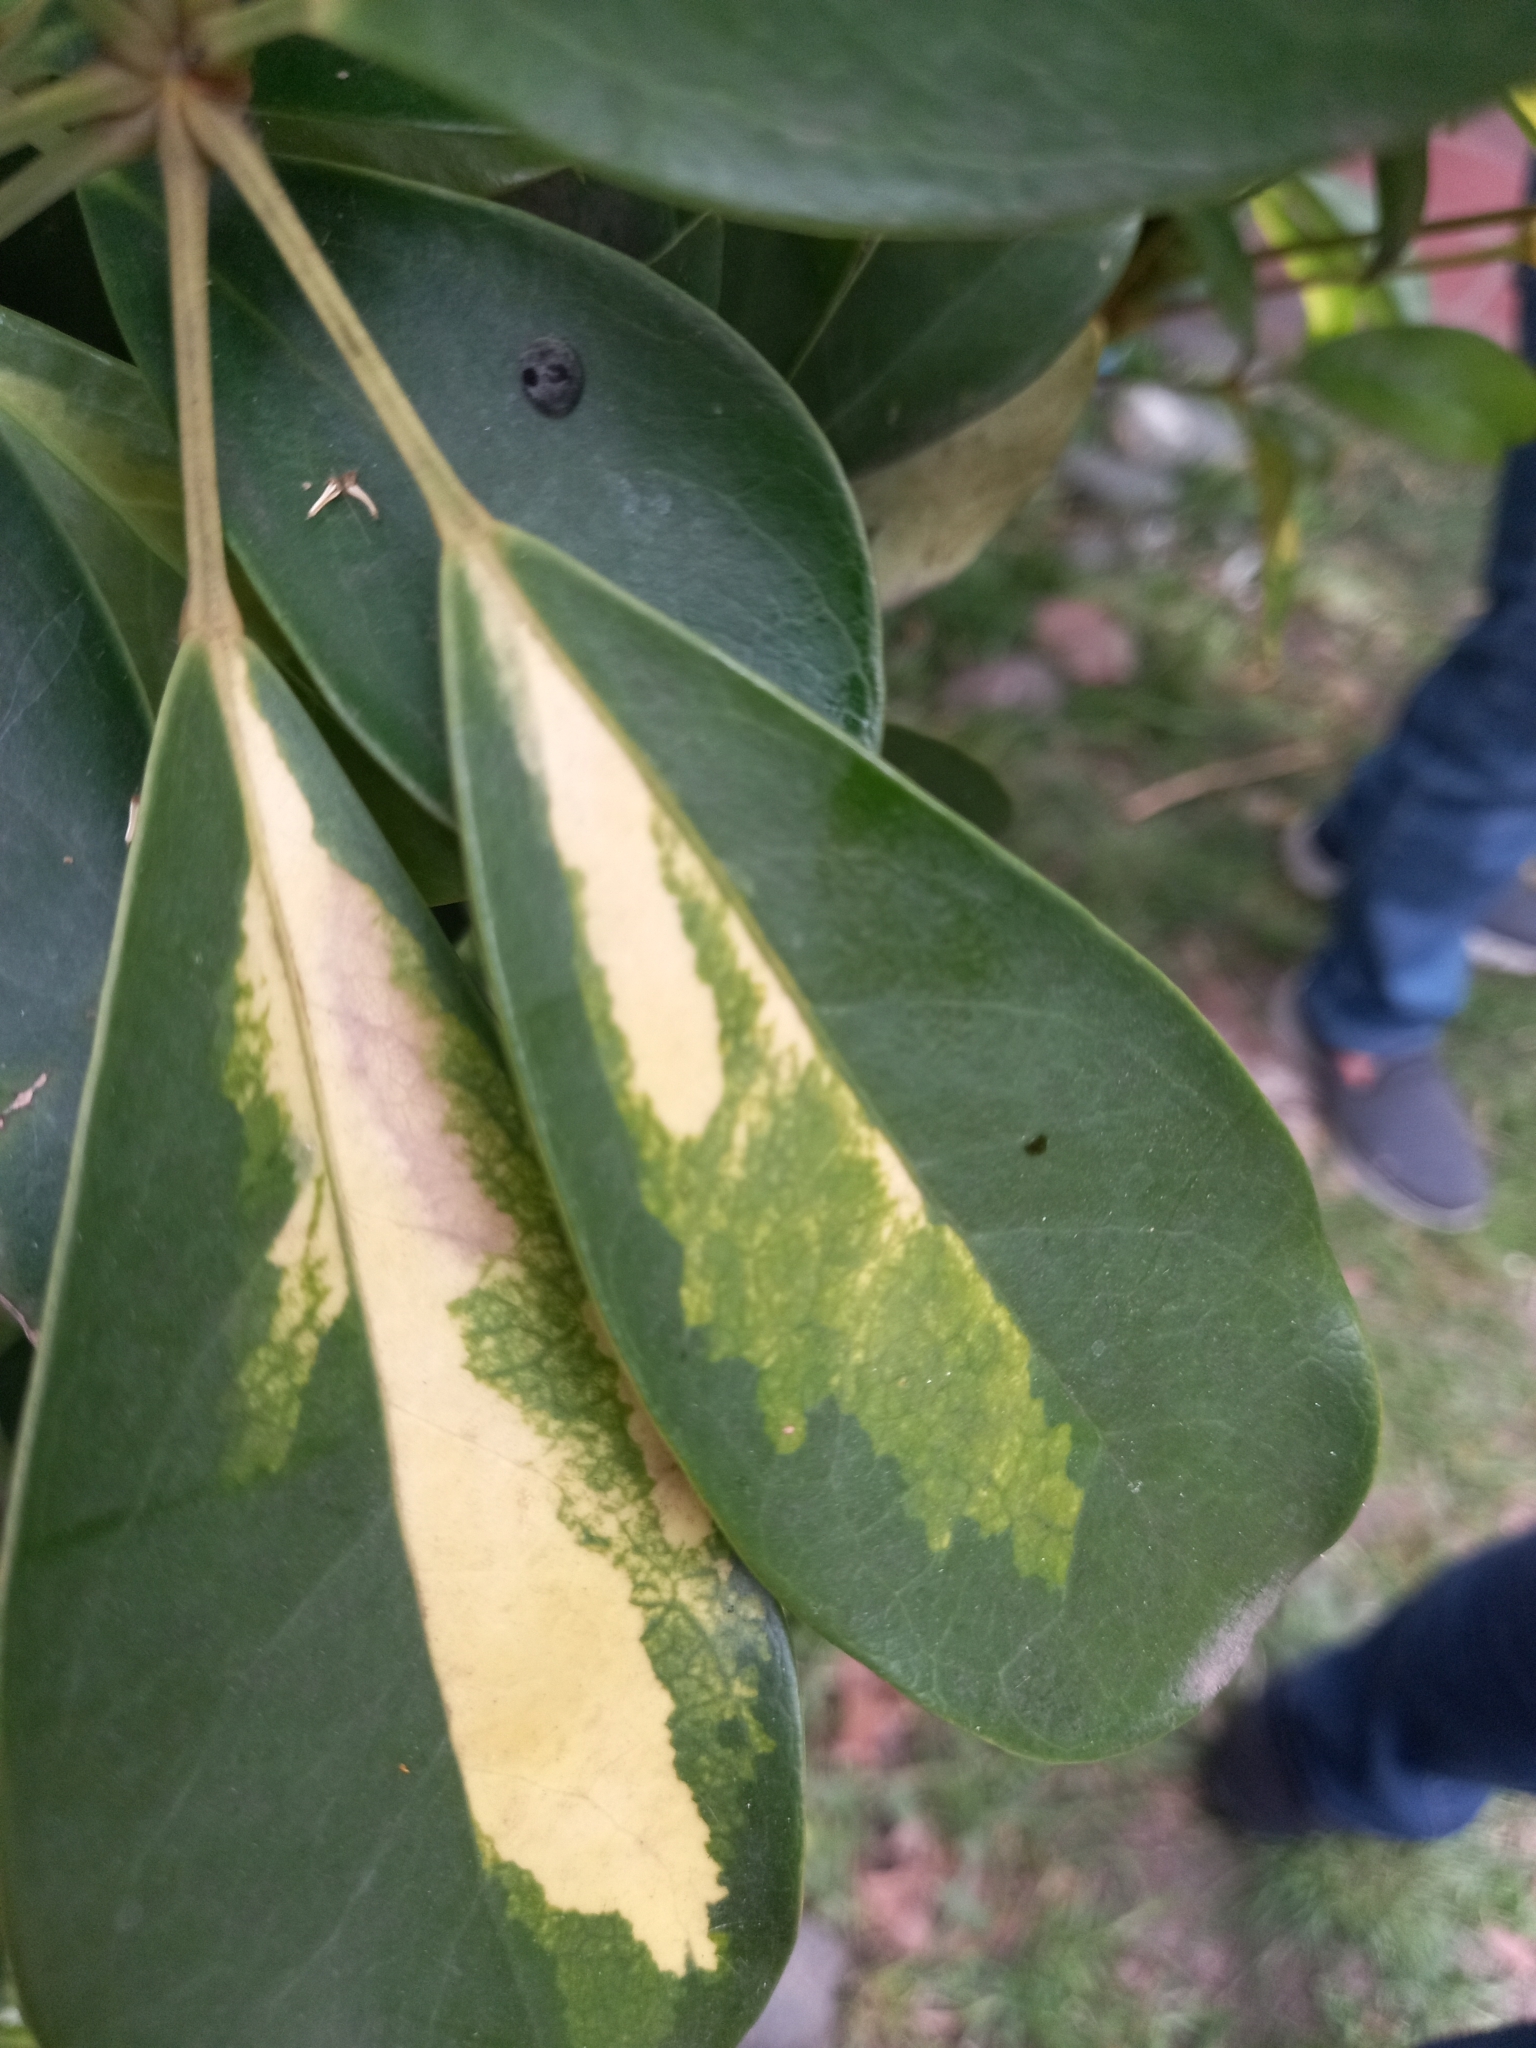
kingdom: Animalia
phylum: Arthropoda
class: Insecta
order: Coleoptera
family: Coccinellidae
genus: Azya
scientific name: Azya luteipes
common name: Ladybird beetle
